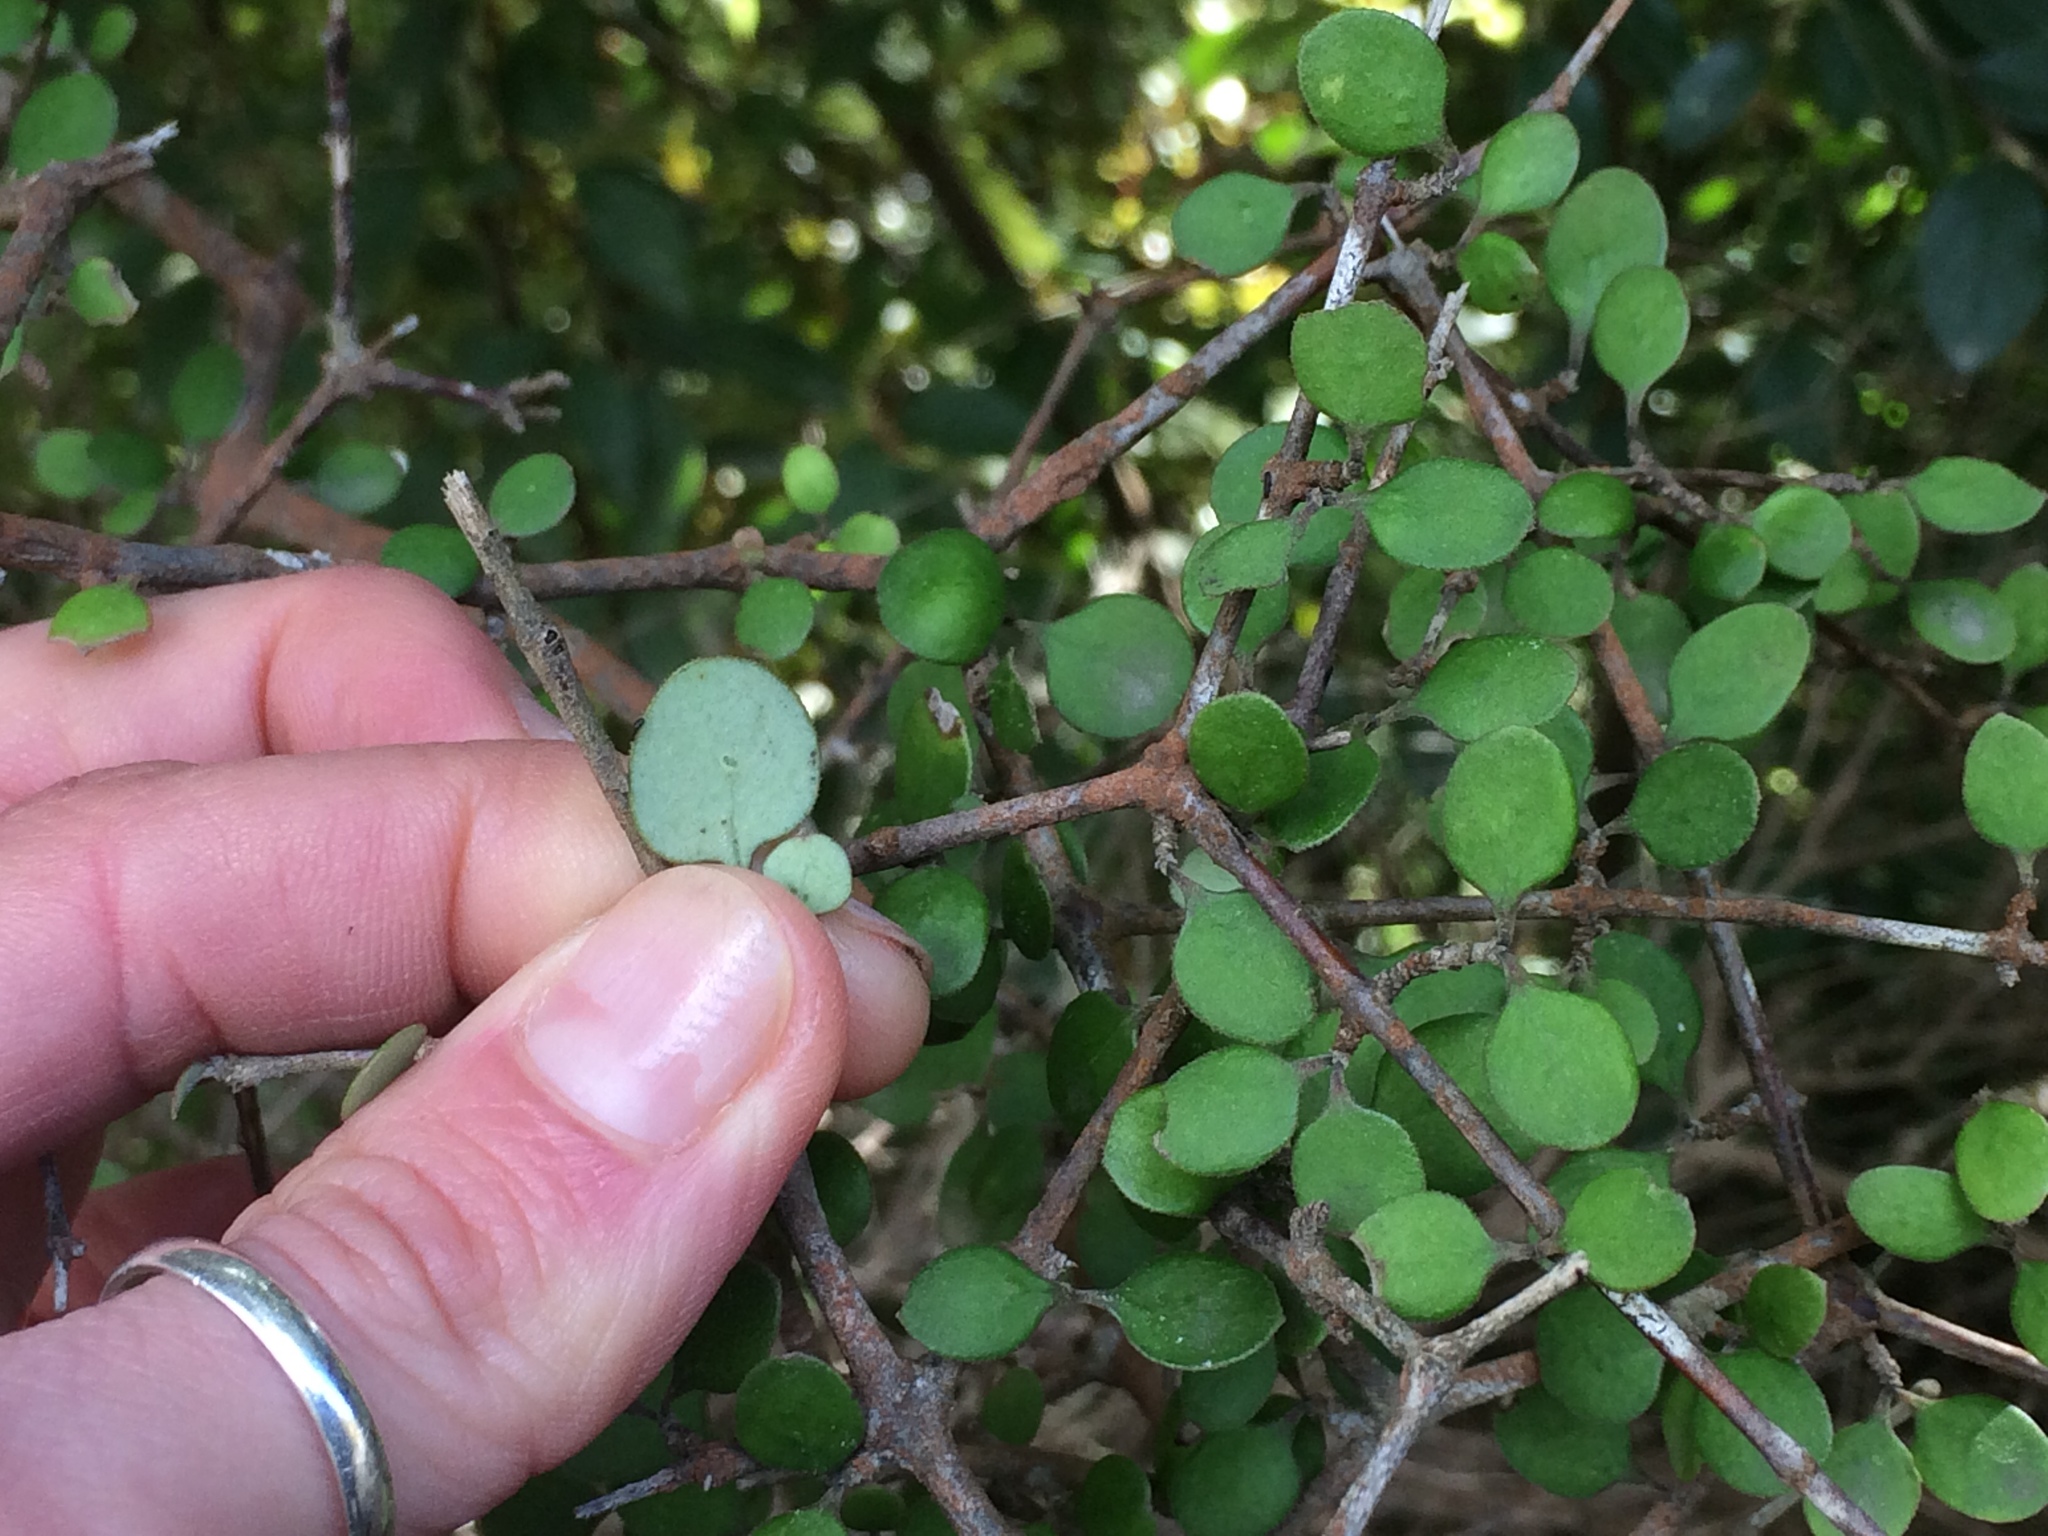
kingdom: Plantae
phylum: Tracheophyta
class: Magnoliopsida
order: Gentianales
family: Rubiaceae
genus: Coprosma
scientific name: Coprosma crassifolia
